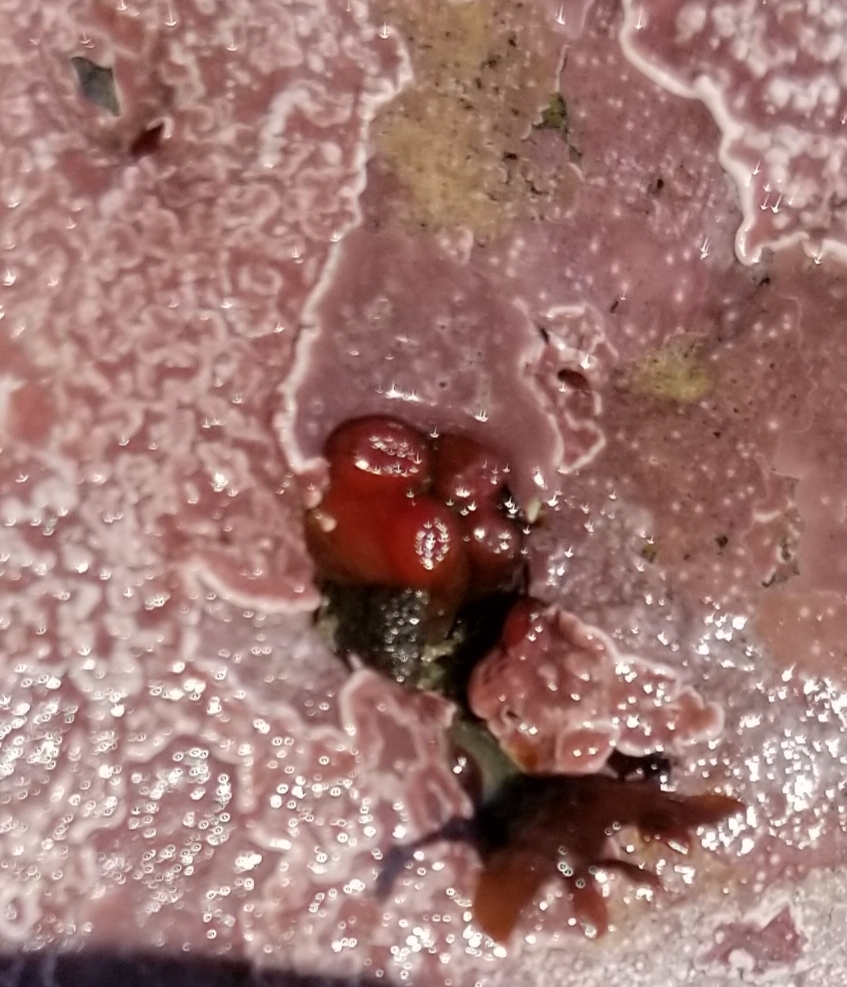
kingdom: Animalia
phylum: Mollusca
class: Bivalvia
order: Adapedonta
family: Hiatellidae
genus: Hiatella
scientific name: Hiatella arctica
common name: Arctic hiatella
